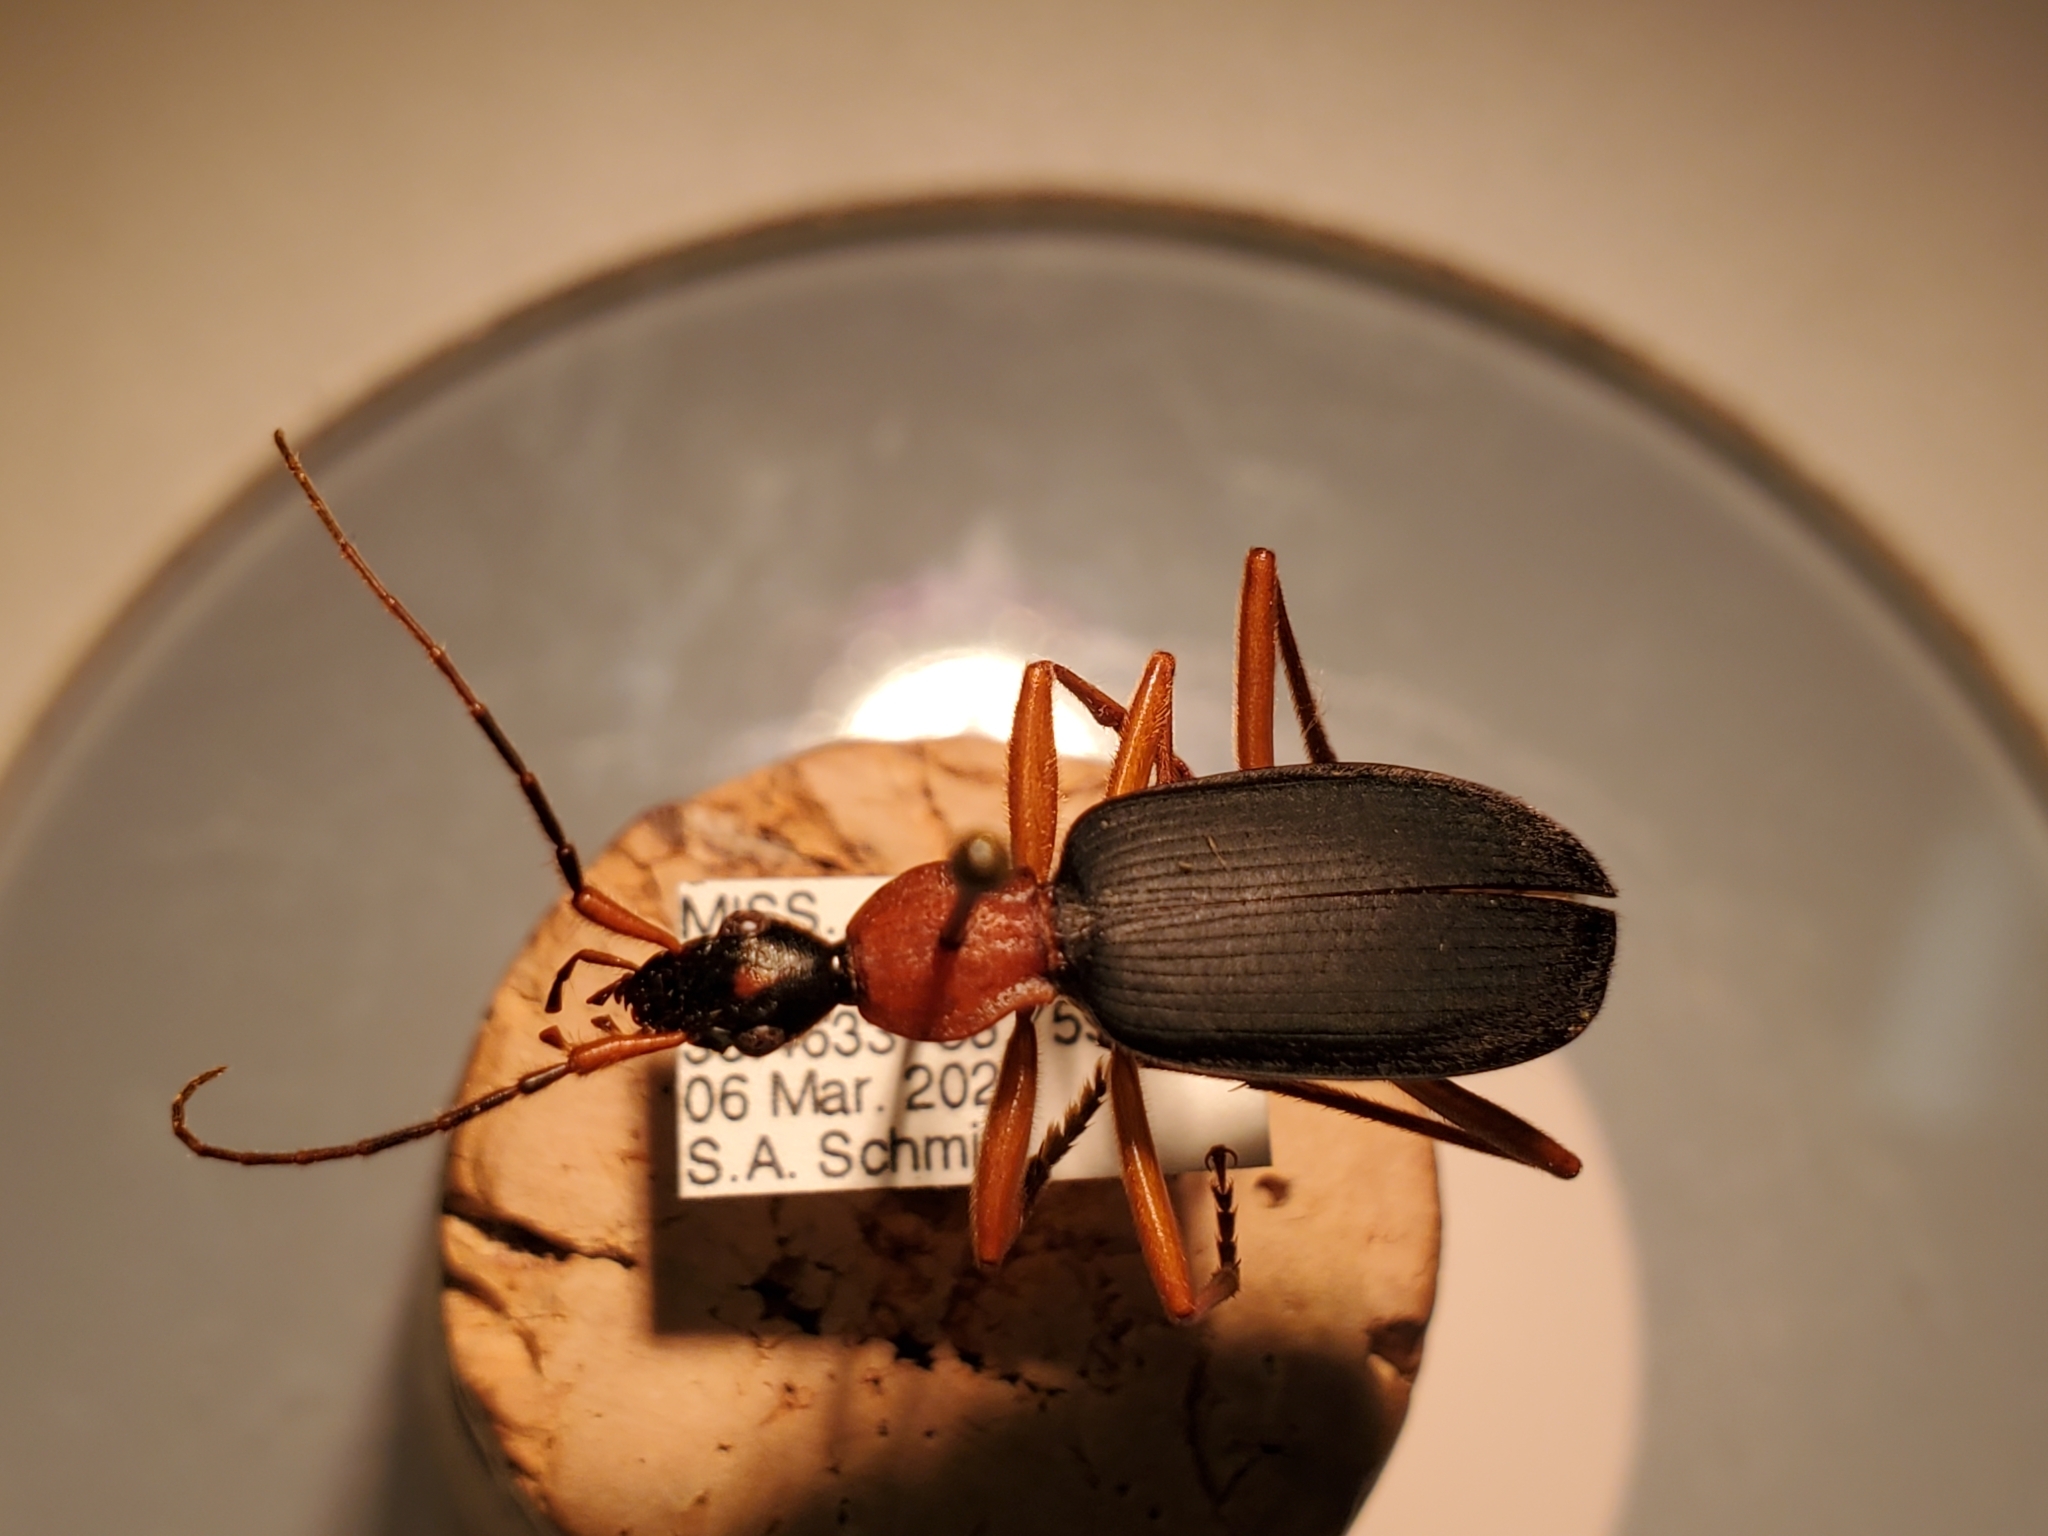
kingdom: Animalia
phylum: Arthropoda
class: Insecta
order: Coleoptera
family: Carabidae
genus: Galerita
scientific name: Galerita bicolor
